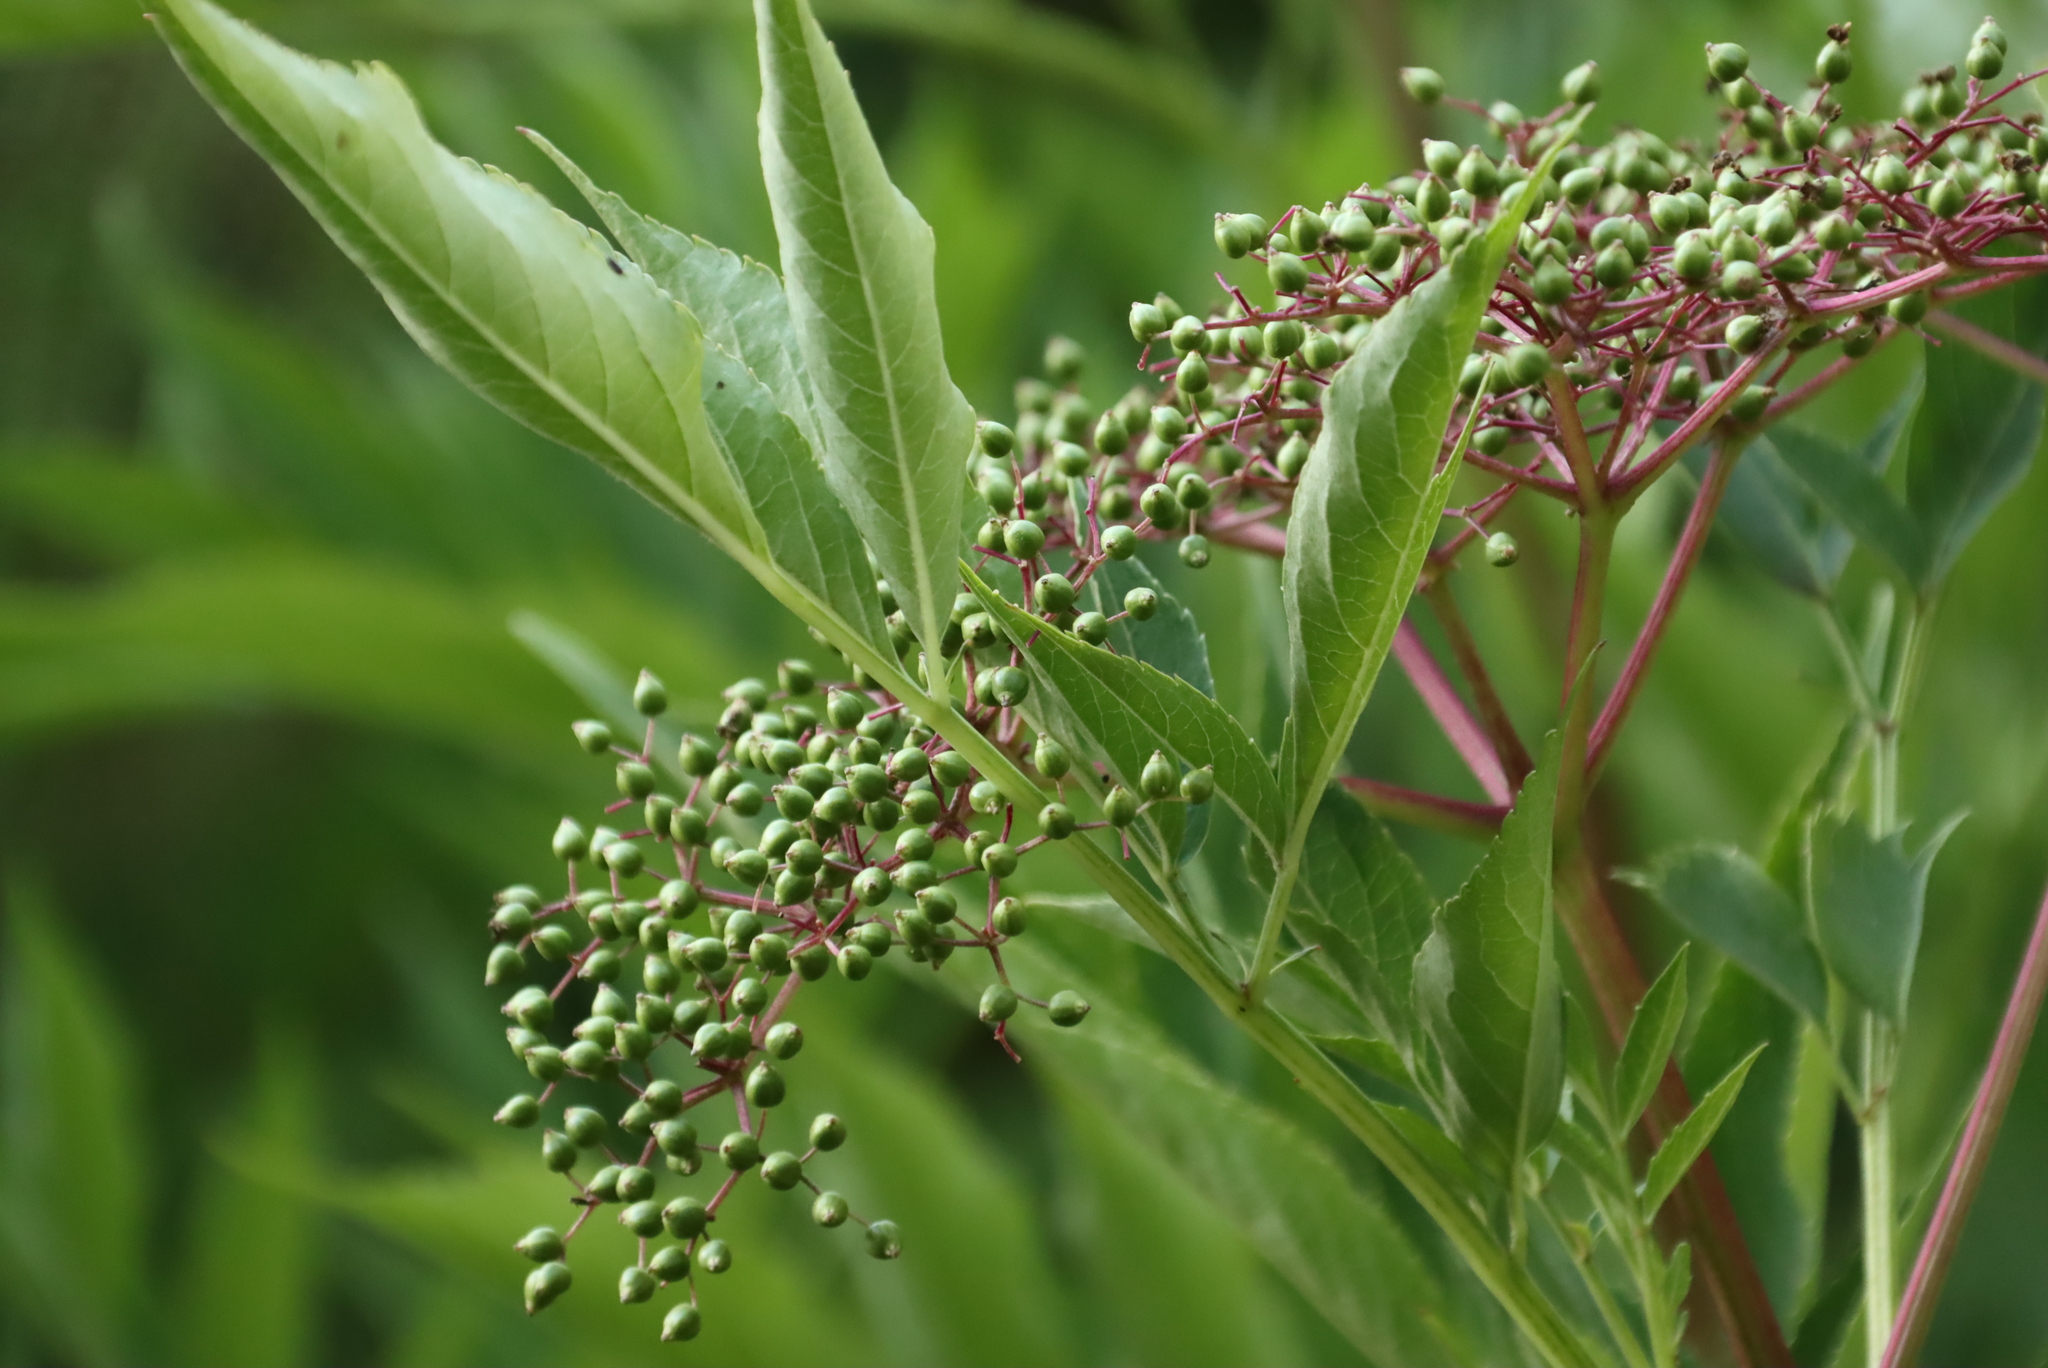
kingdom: Plantae
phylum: Tracheophyta
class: Magnoliopsida
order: Dipsacales
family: Viburnaceae
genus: Sambucus
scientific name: Sambucus nigra
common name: Elder
